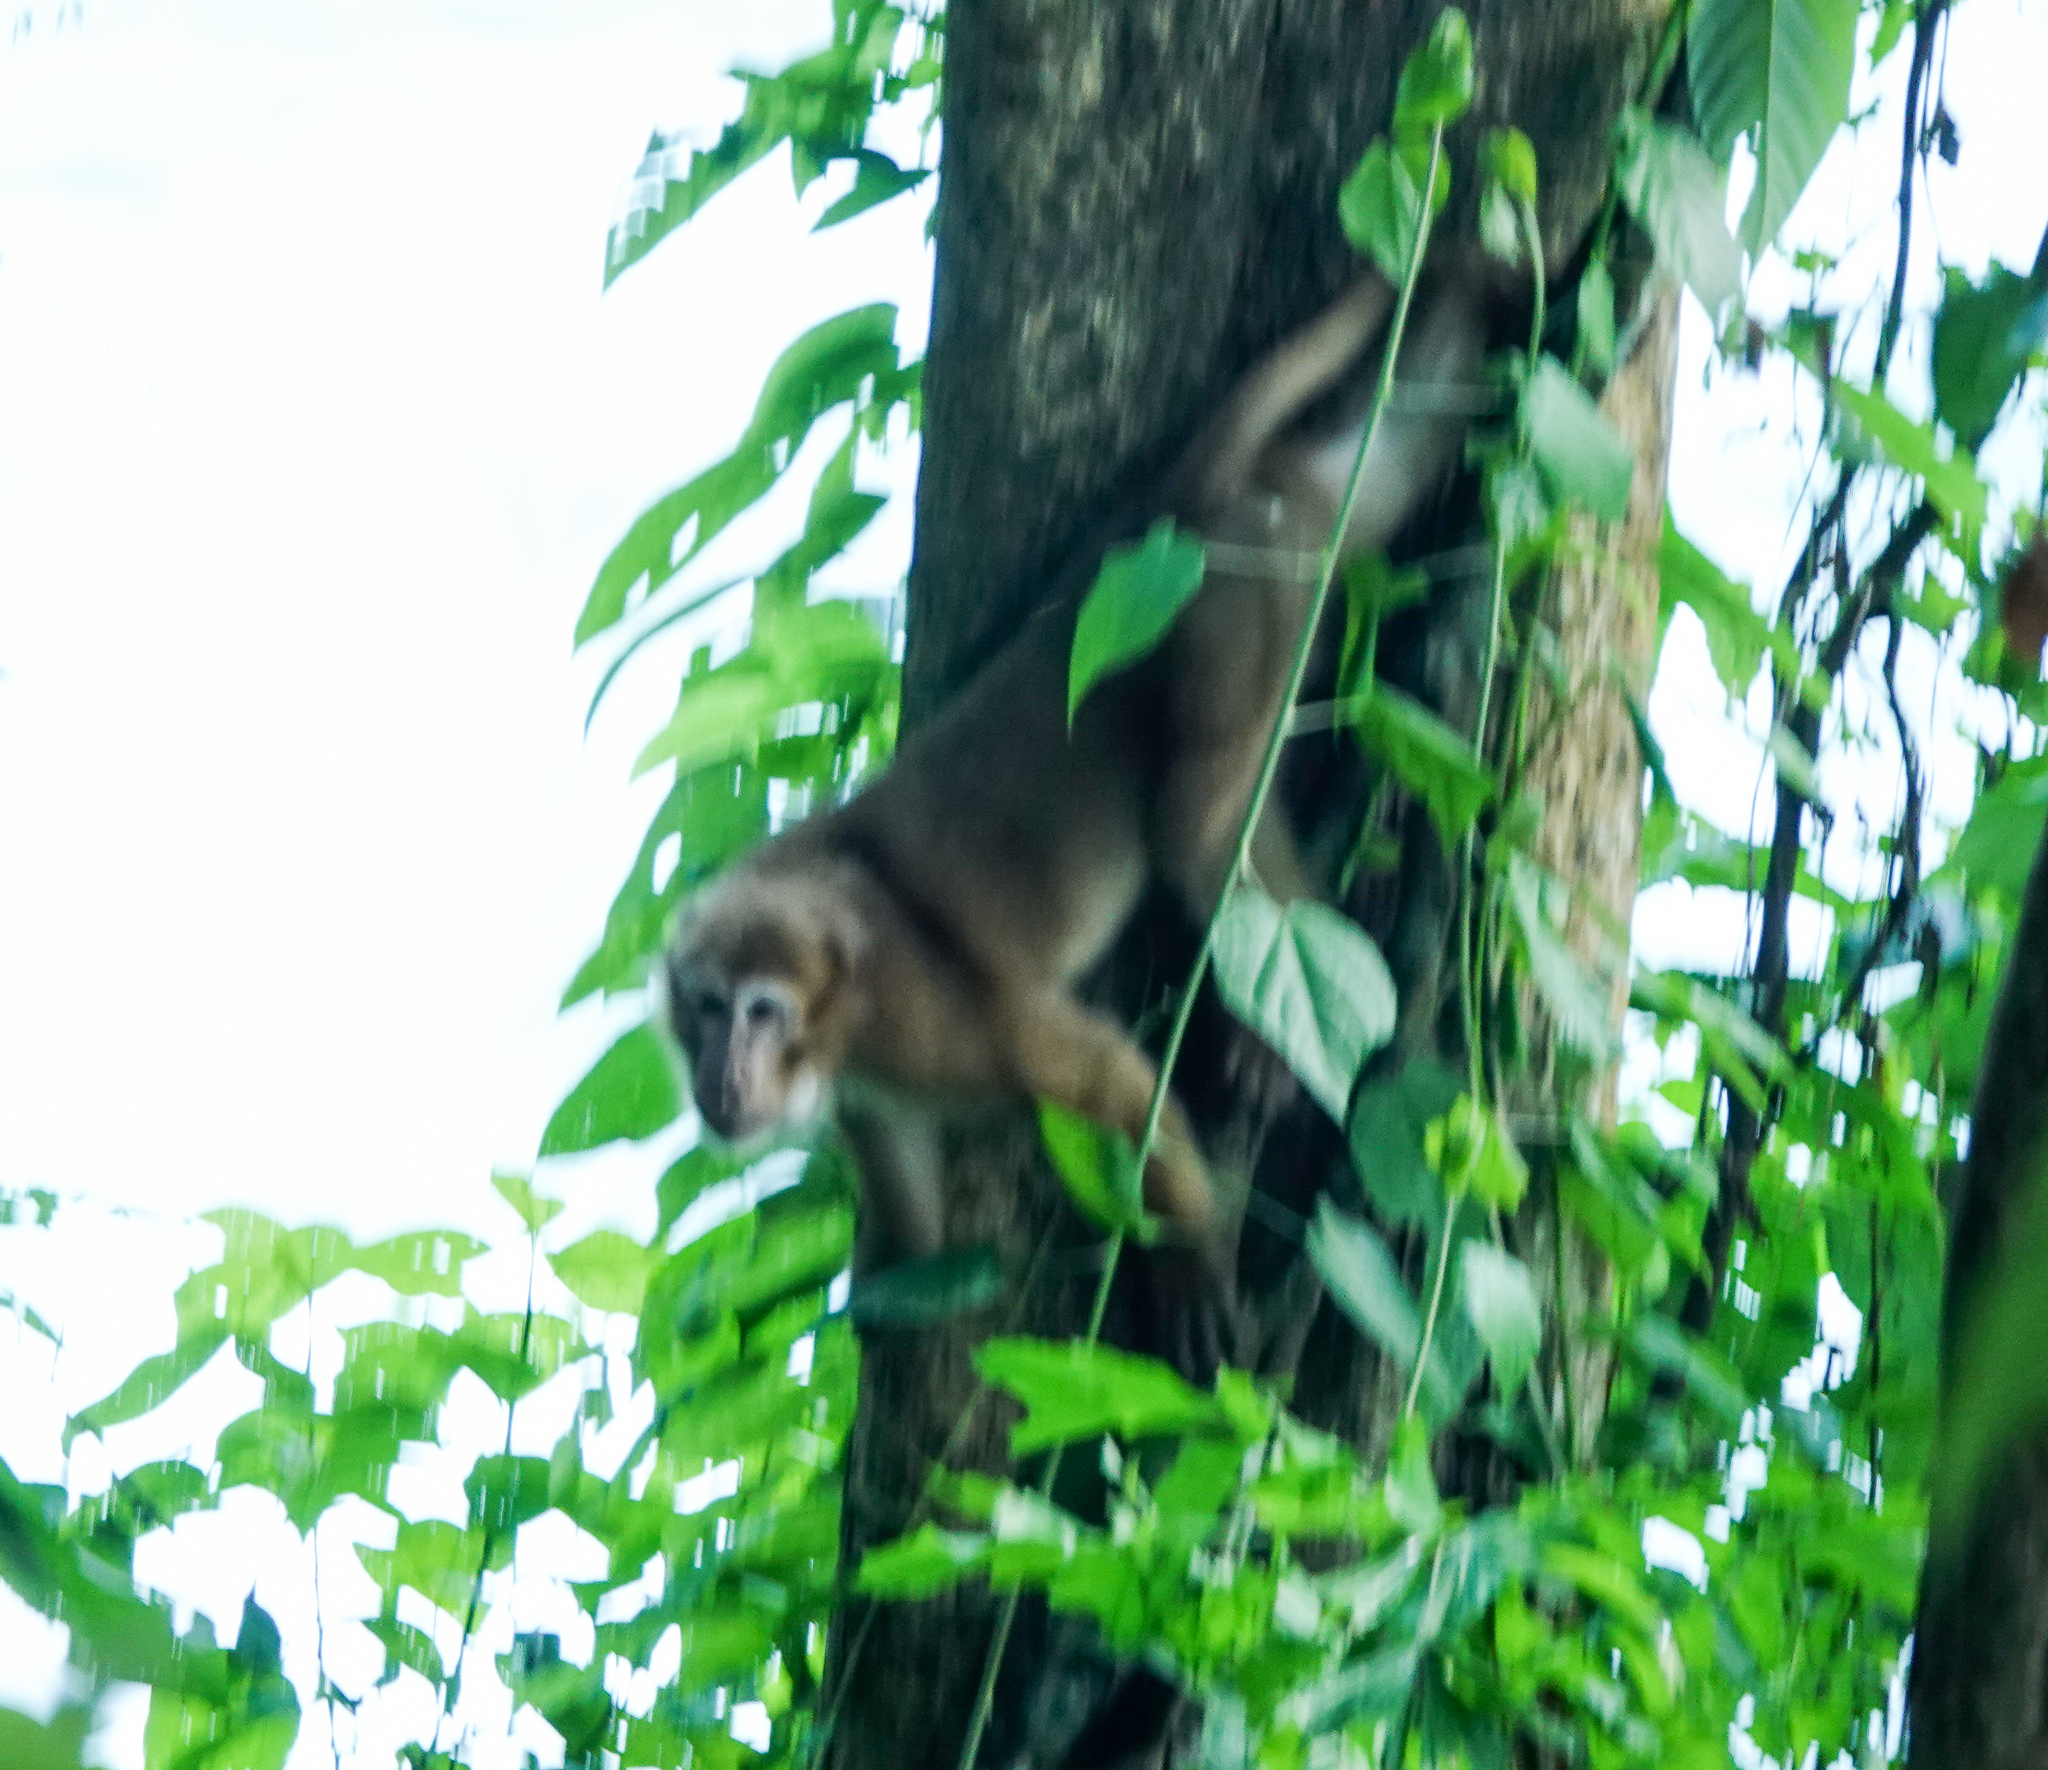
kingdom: Animalia
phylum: Chordata
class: Mammalia
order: Primates
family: Cercopithecidae
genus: Macaca
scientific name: Macaca assamensis
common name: Assam macaque
